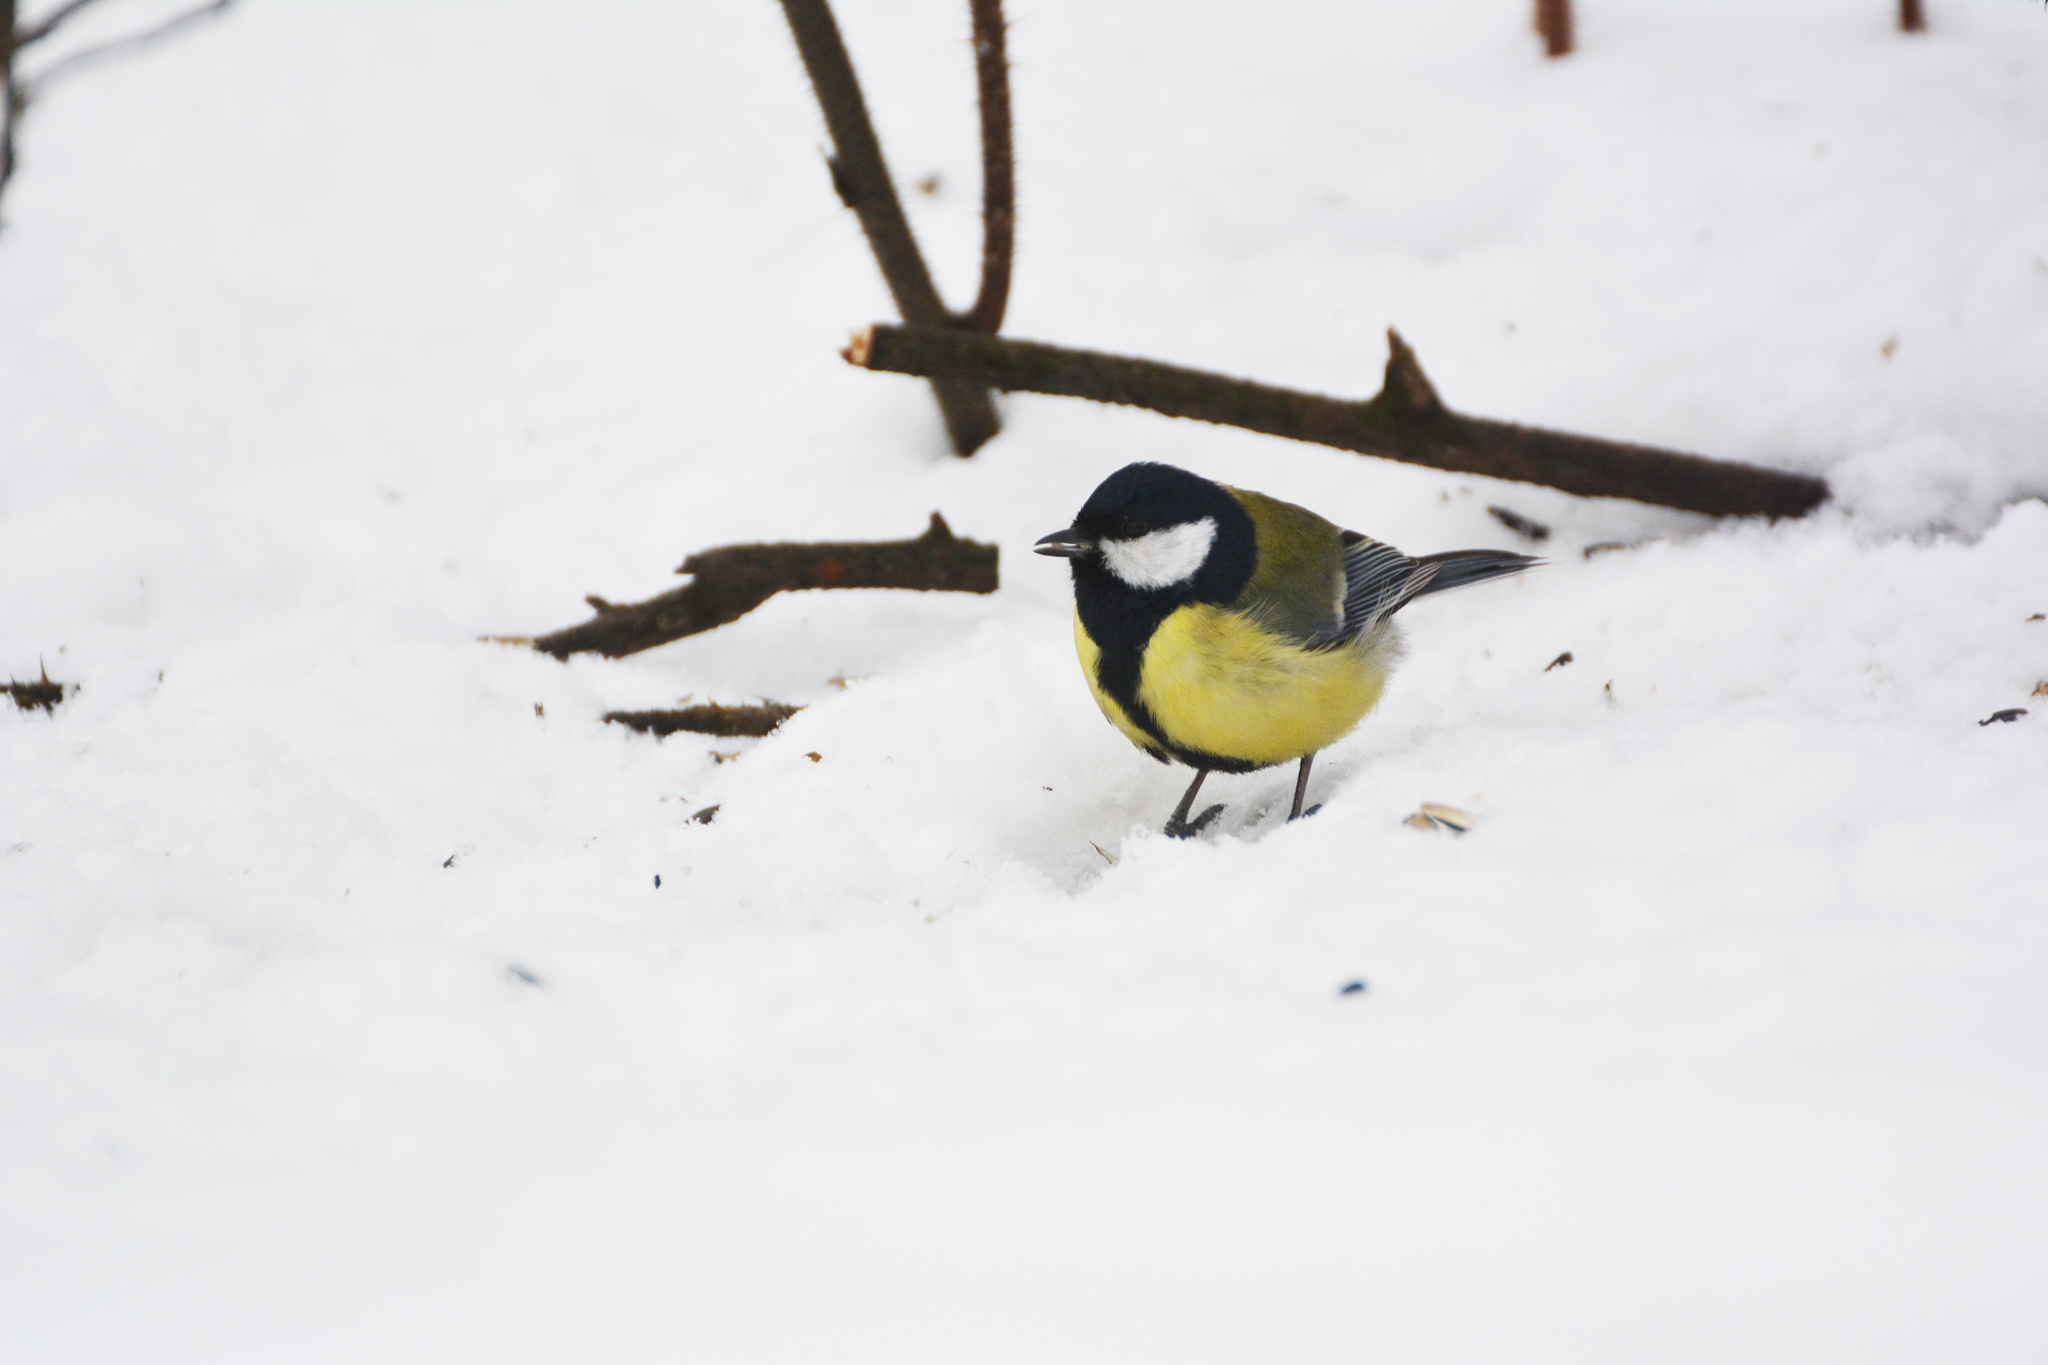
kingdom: Animalia
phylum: Chordata
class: Aves
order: Passeriformes
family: Paridae
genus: Parus
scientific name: Parus major
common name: Great tit
